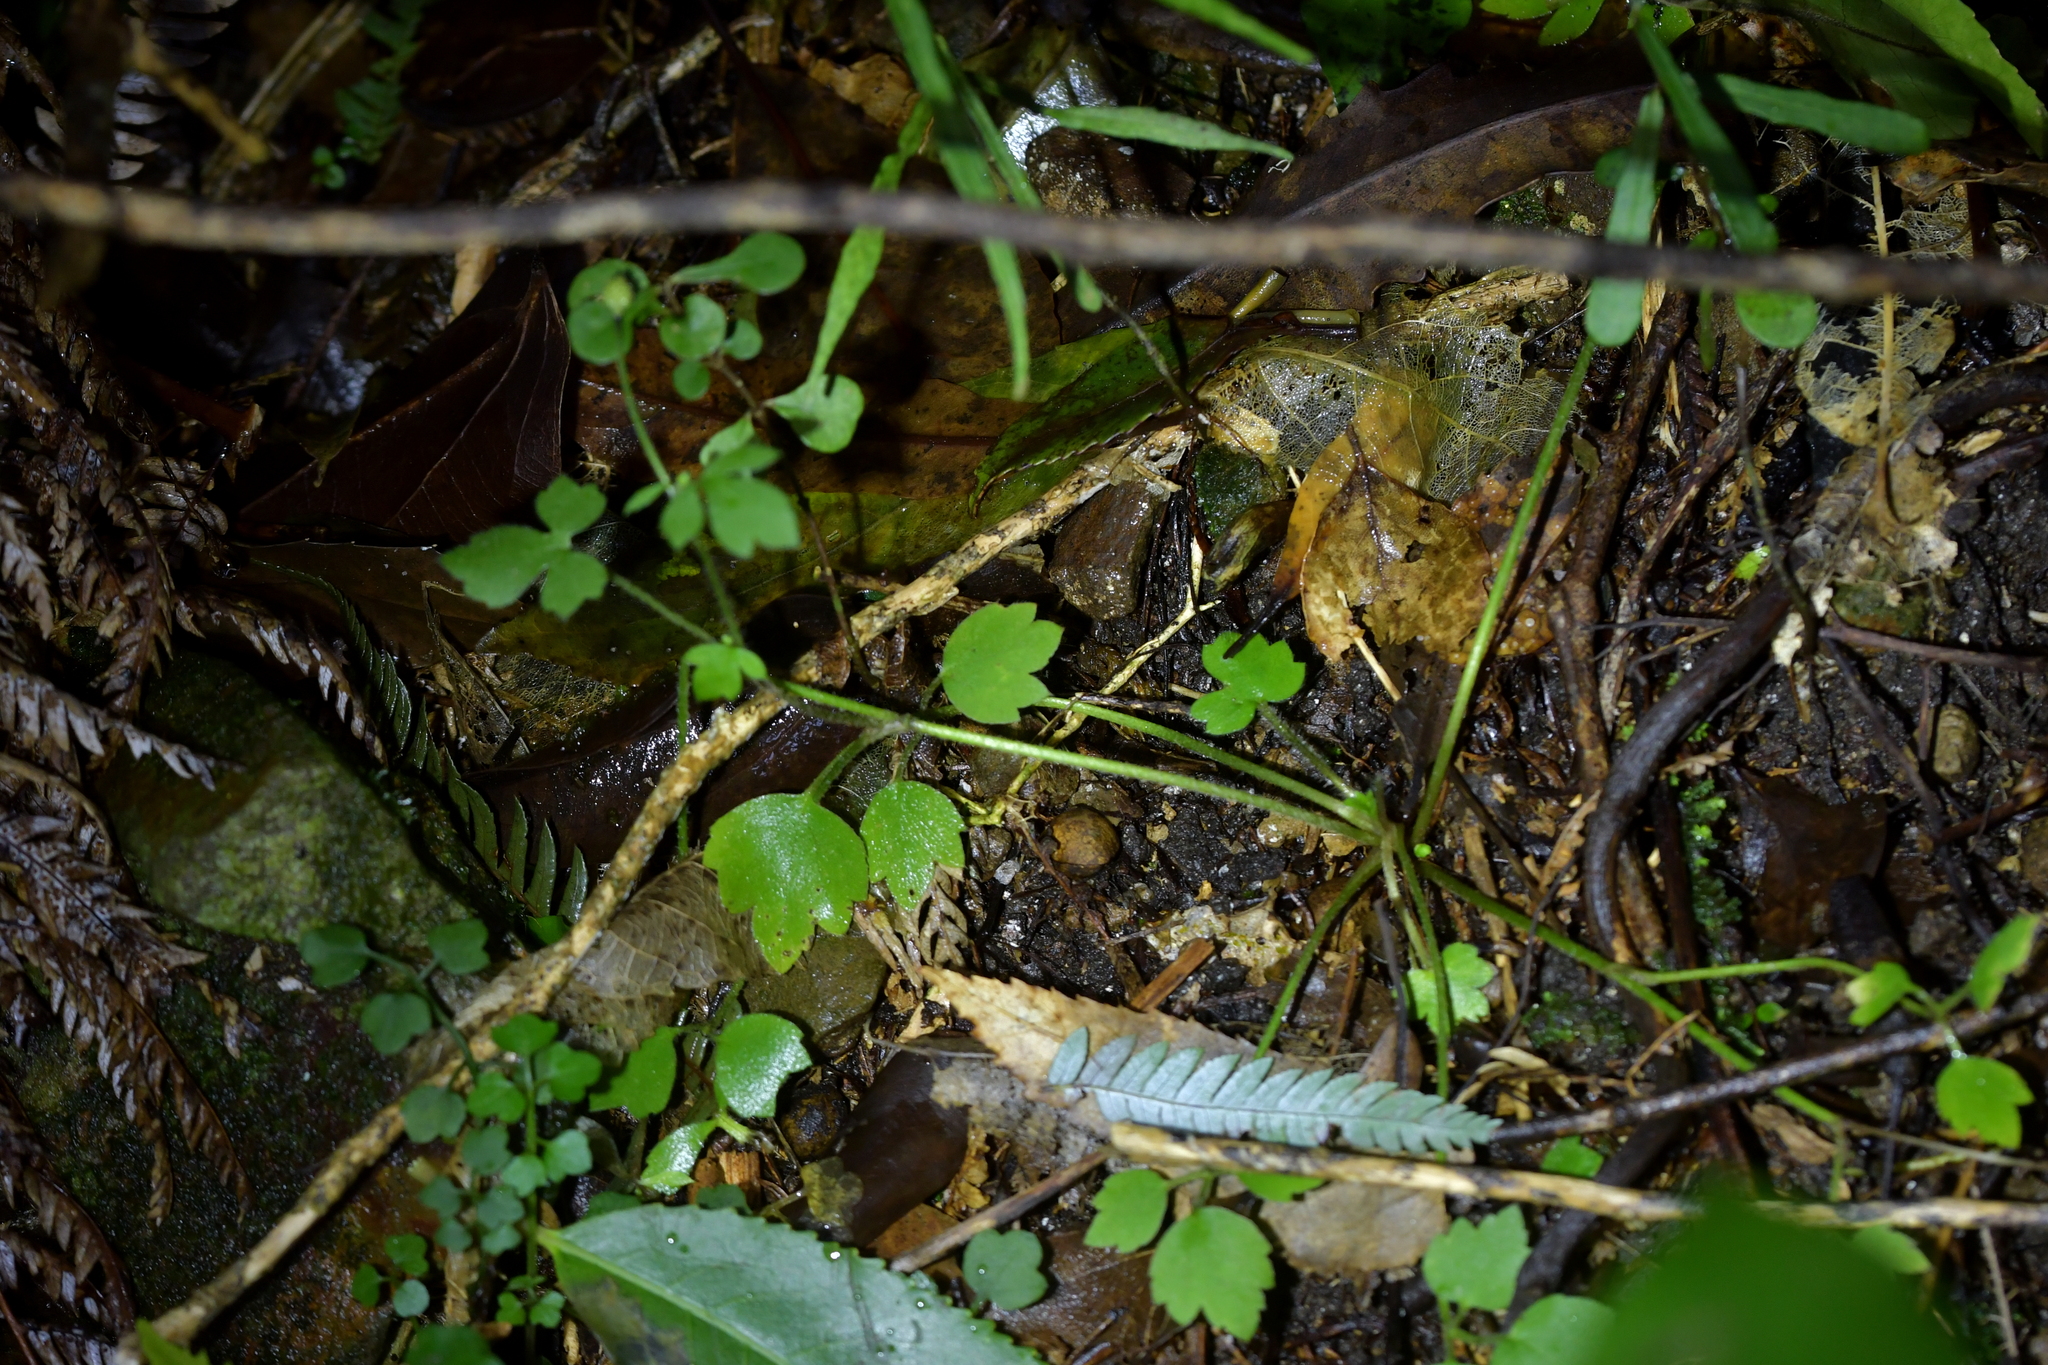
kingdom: Plantae
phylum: Tracheophyta
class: Magnoliopsida
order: Ranunculales
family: Ranunculaceae
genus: Ranunculus
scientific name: Ranunculus reflexus
